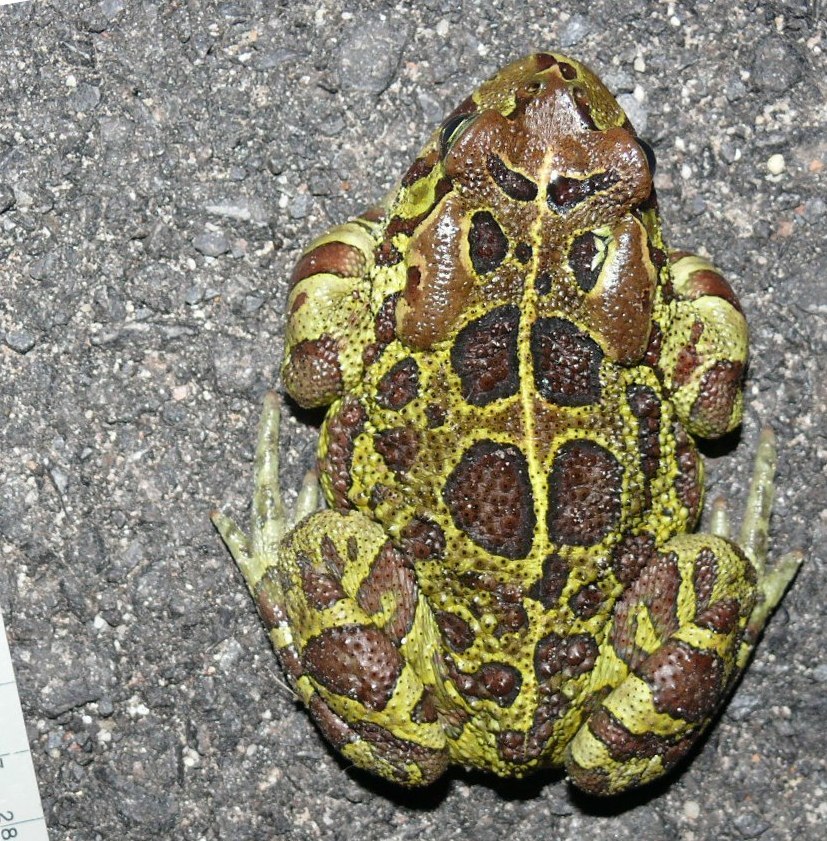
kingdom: Animalia
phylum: Chordata
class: Amphibia
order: Anura
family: Bufonidae
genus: Sclerophrys
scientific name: Sclerophrys pantherina
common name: Panther toad
